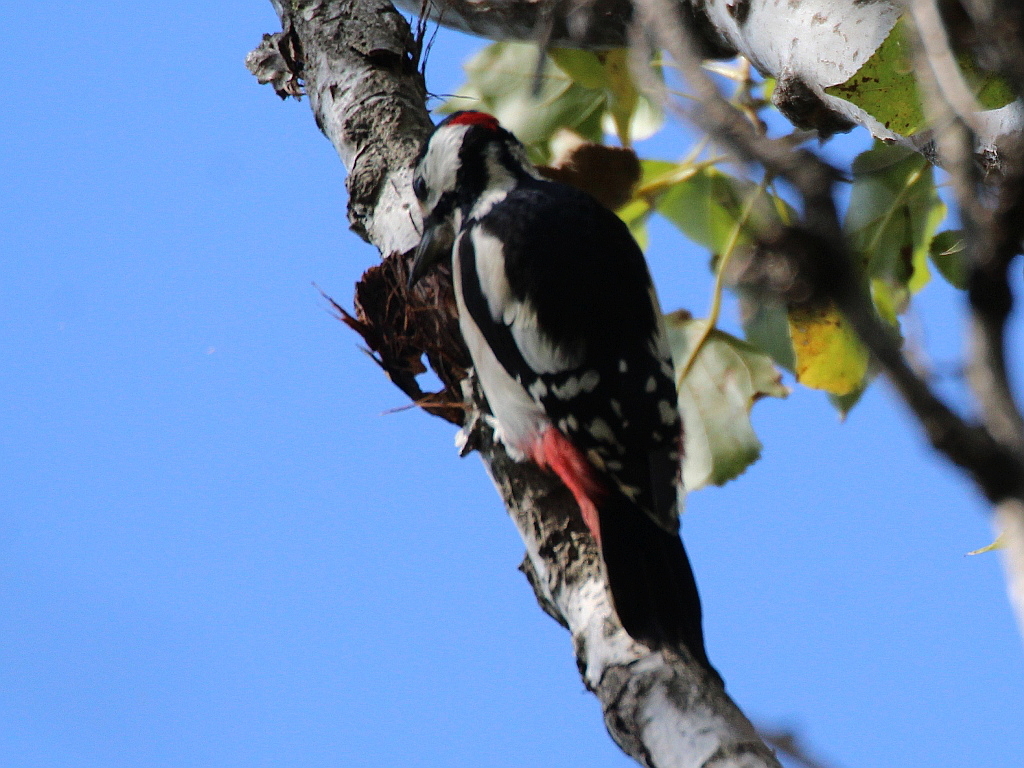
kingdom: Animalia
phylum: Chordata
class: Aves
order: Piciformes
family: Picidae
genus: Dendrocopos
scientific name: Dendrocopos major
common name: Great spotted woodpecker
